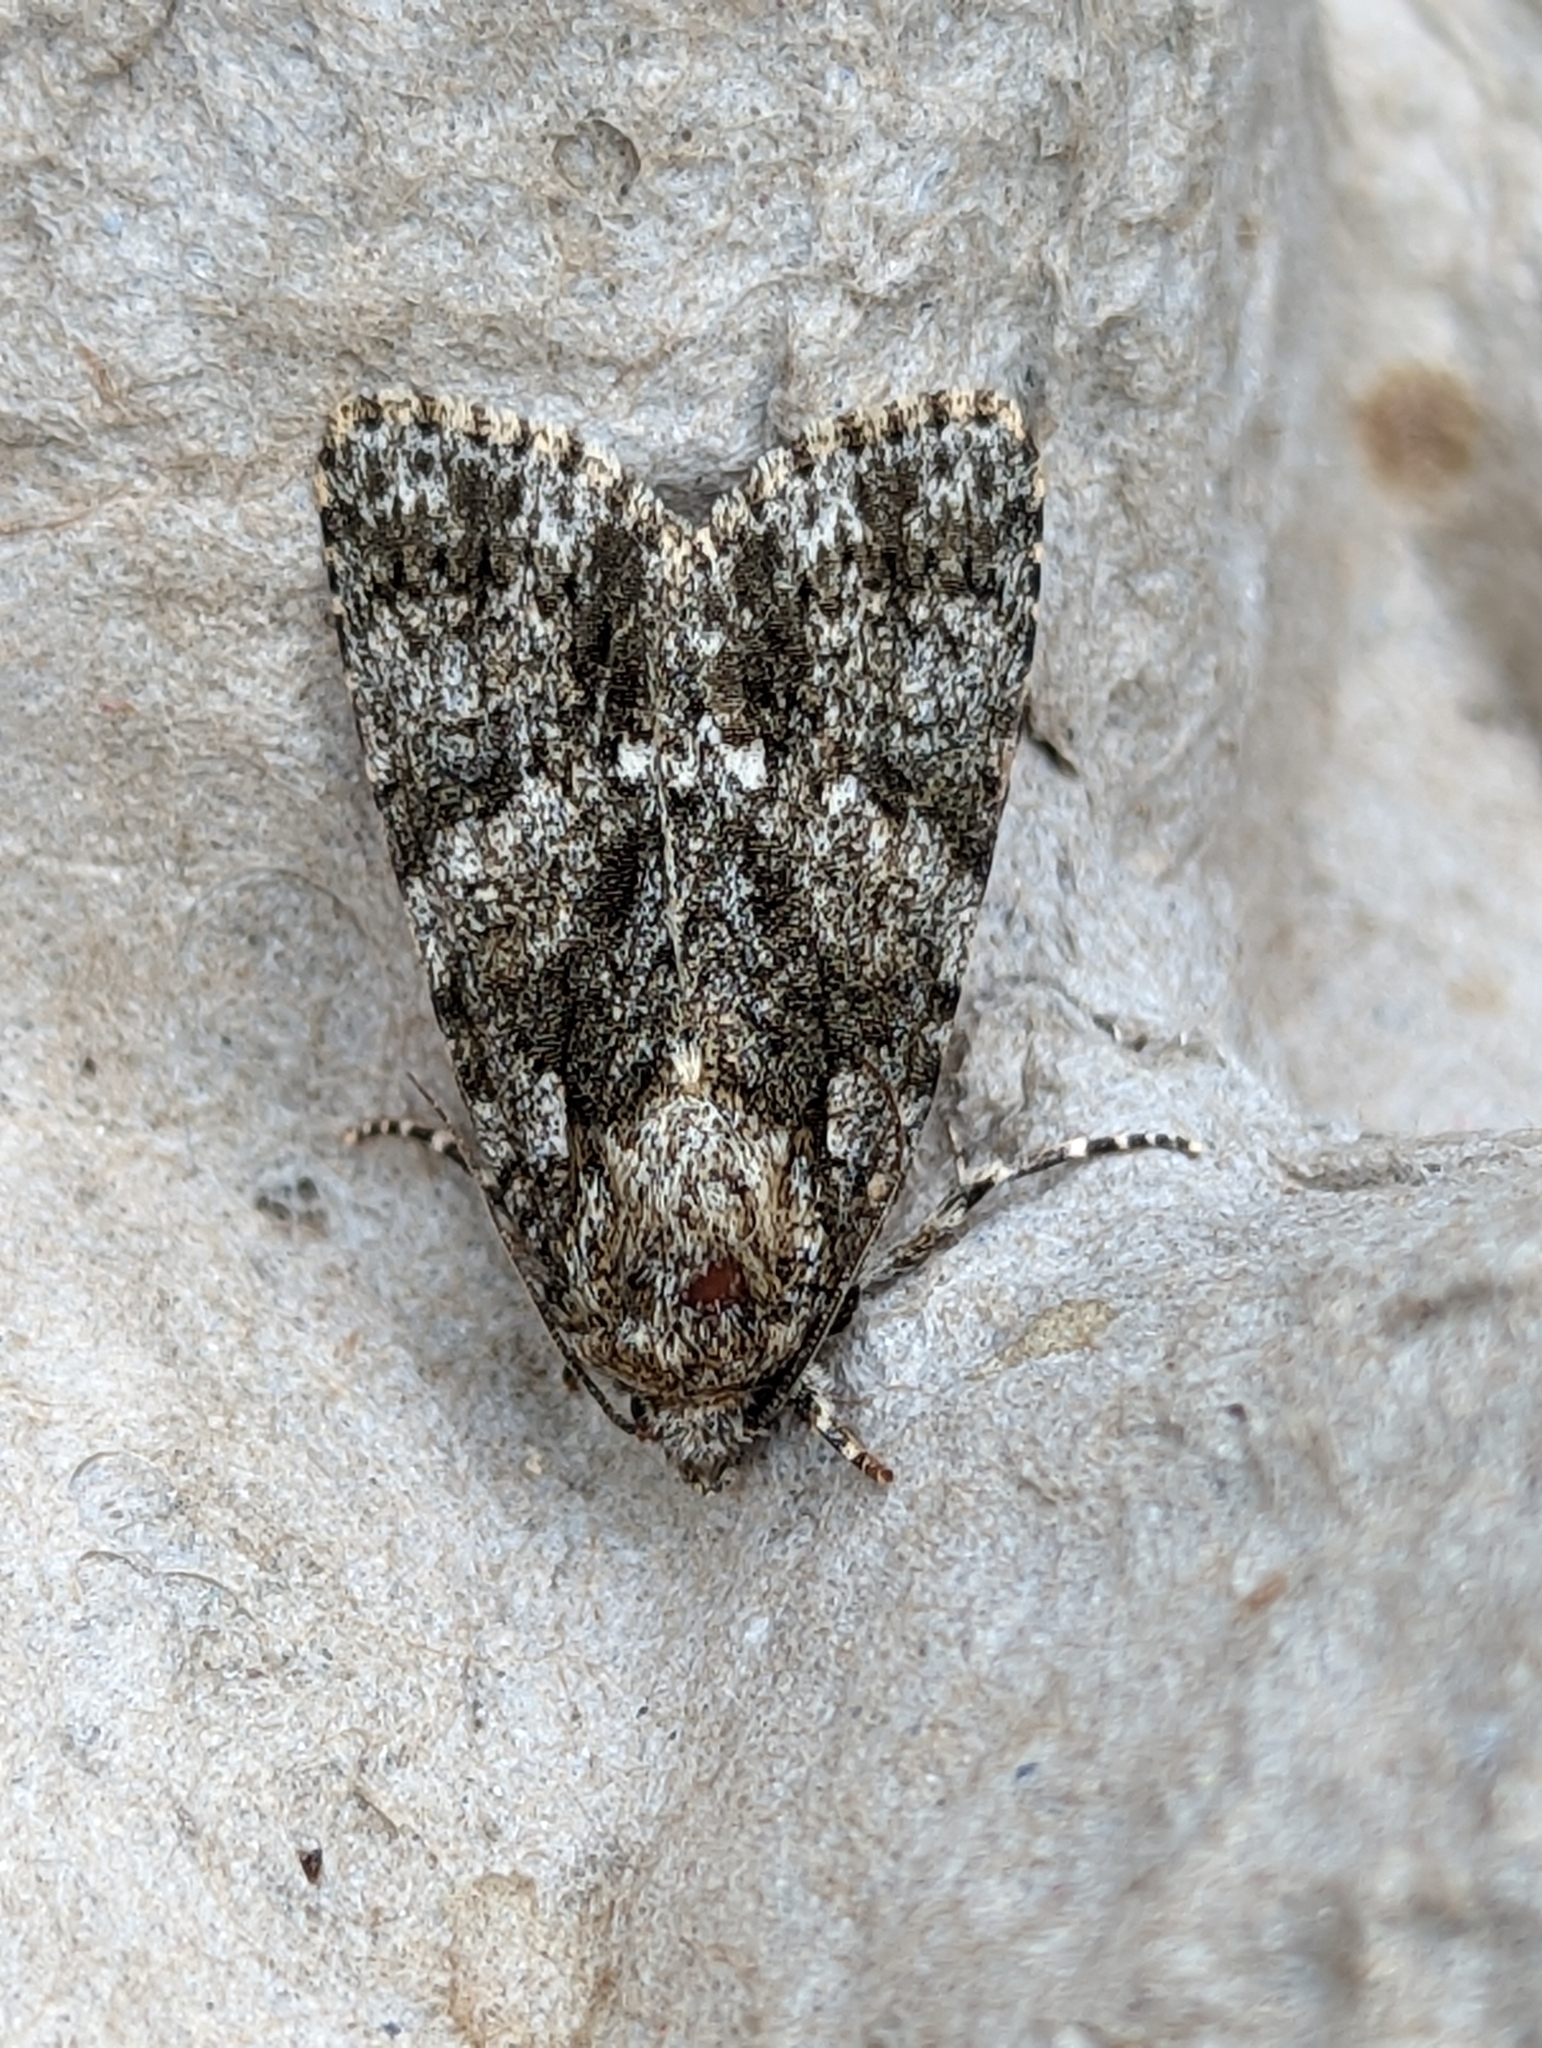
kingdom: Animalia
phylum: Arthropoda
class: Insecta
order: Lepidoptera
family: Noctuidae
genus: Acronicta
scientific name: Acronicta rumicis
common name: Knot grass
